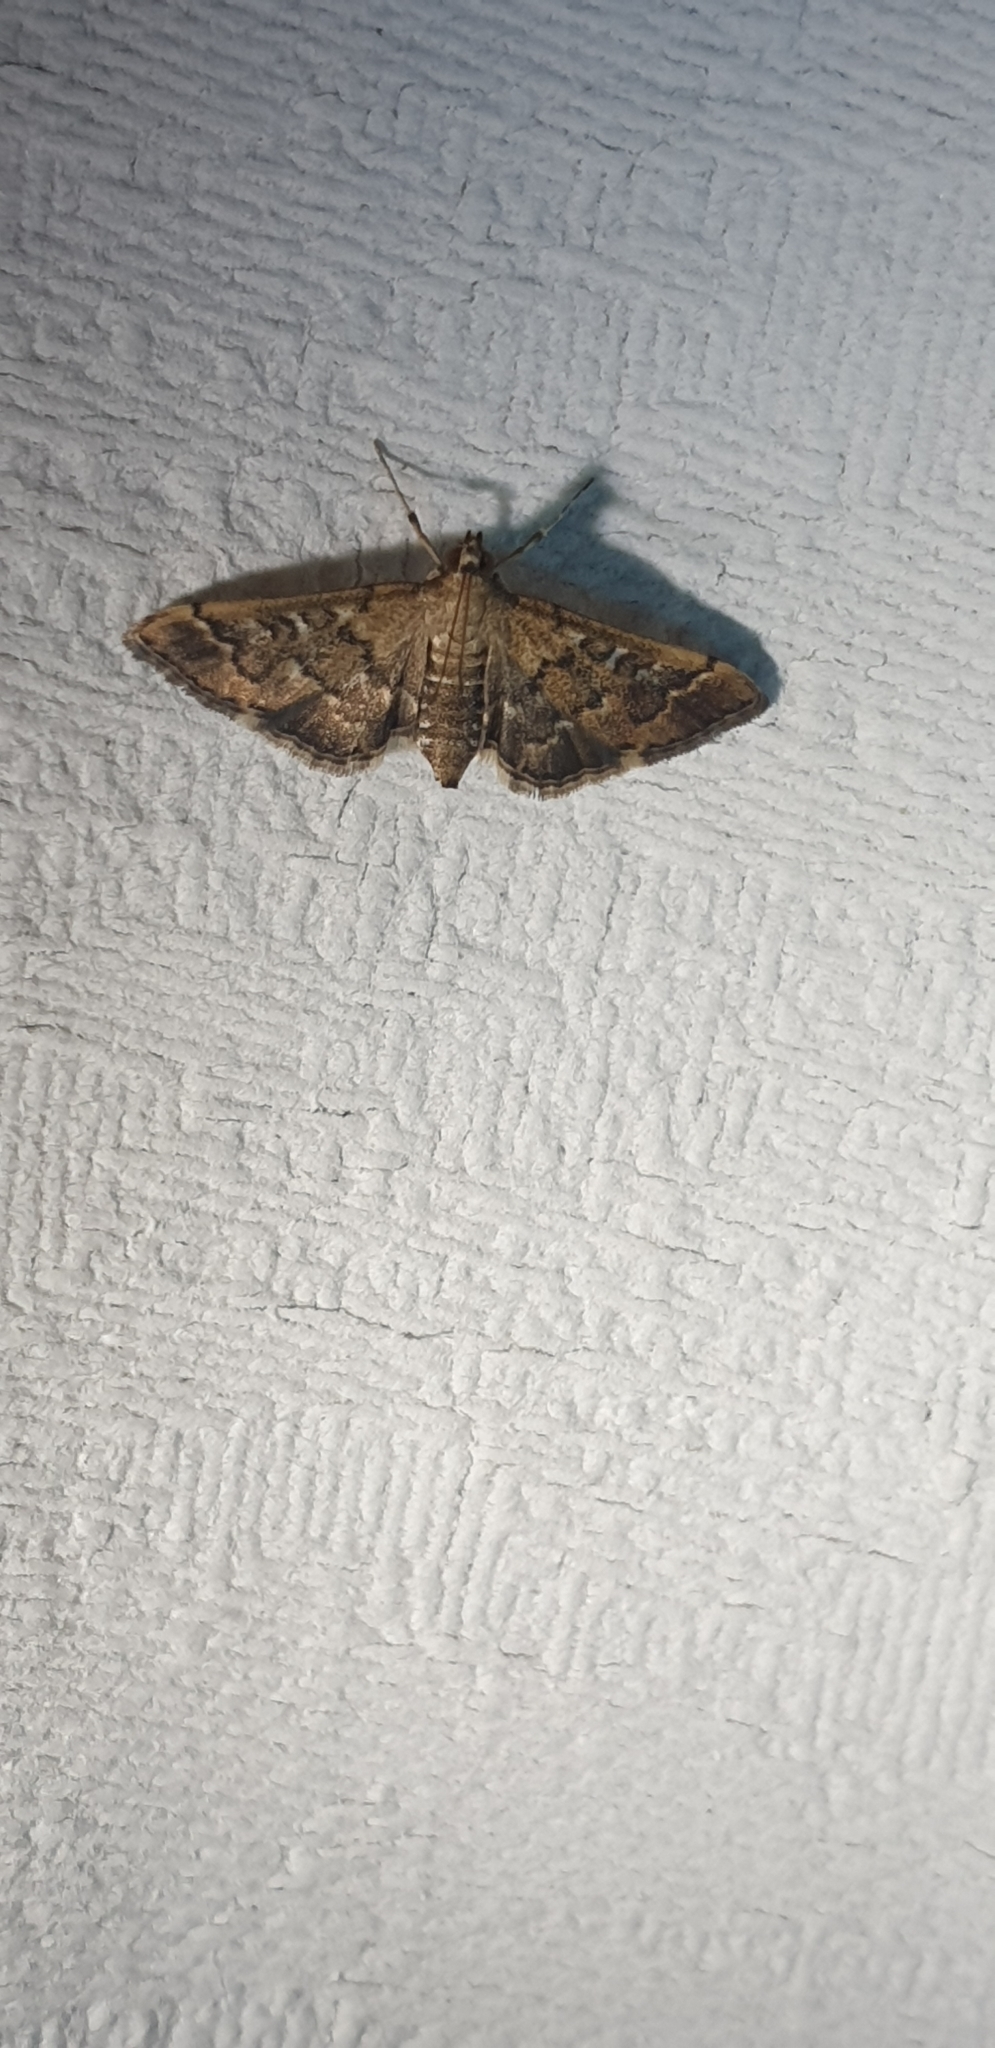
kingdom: Animalia
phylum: Arthropoda
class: Insecta
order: Lepidoptera
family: Crambidae
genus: Nacoleia
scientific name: Nacoleia rhoeoalis
